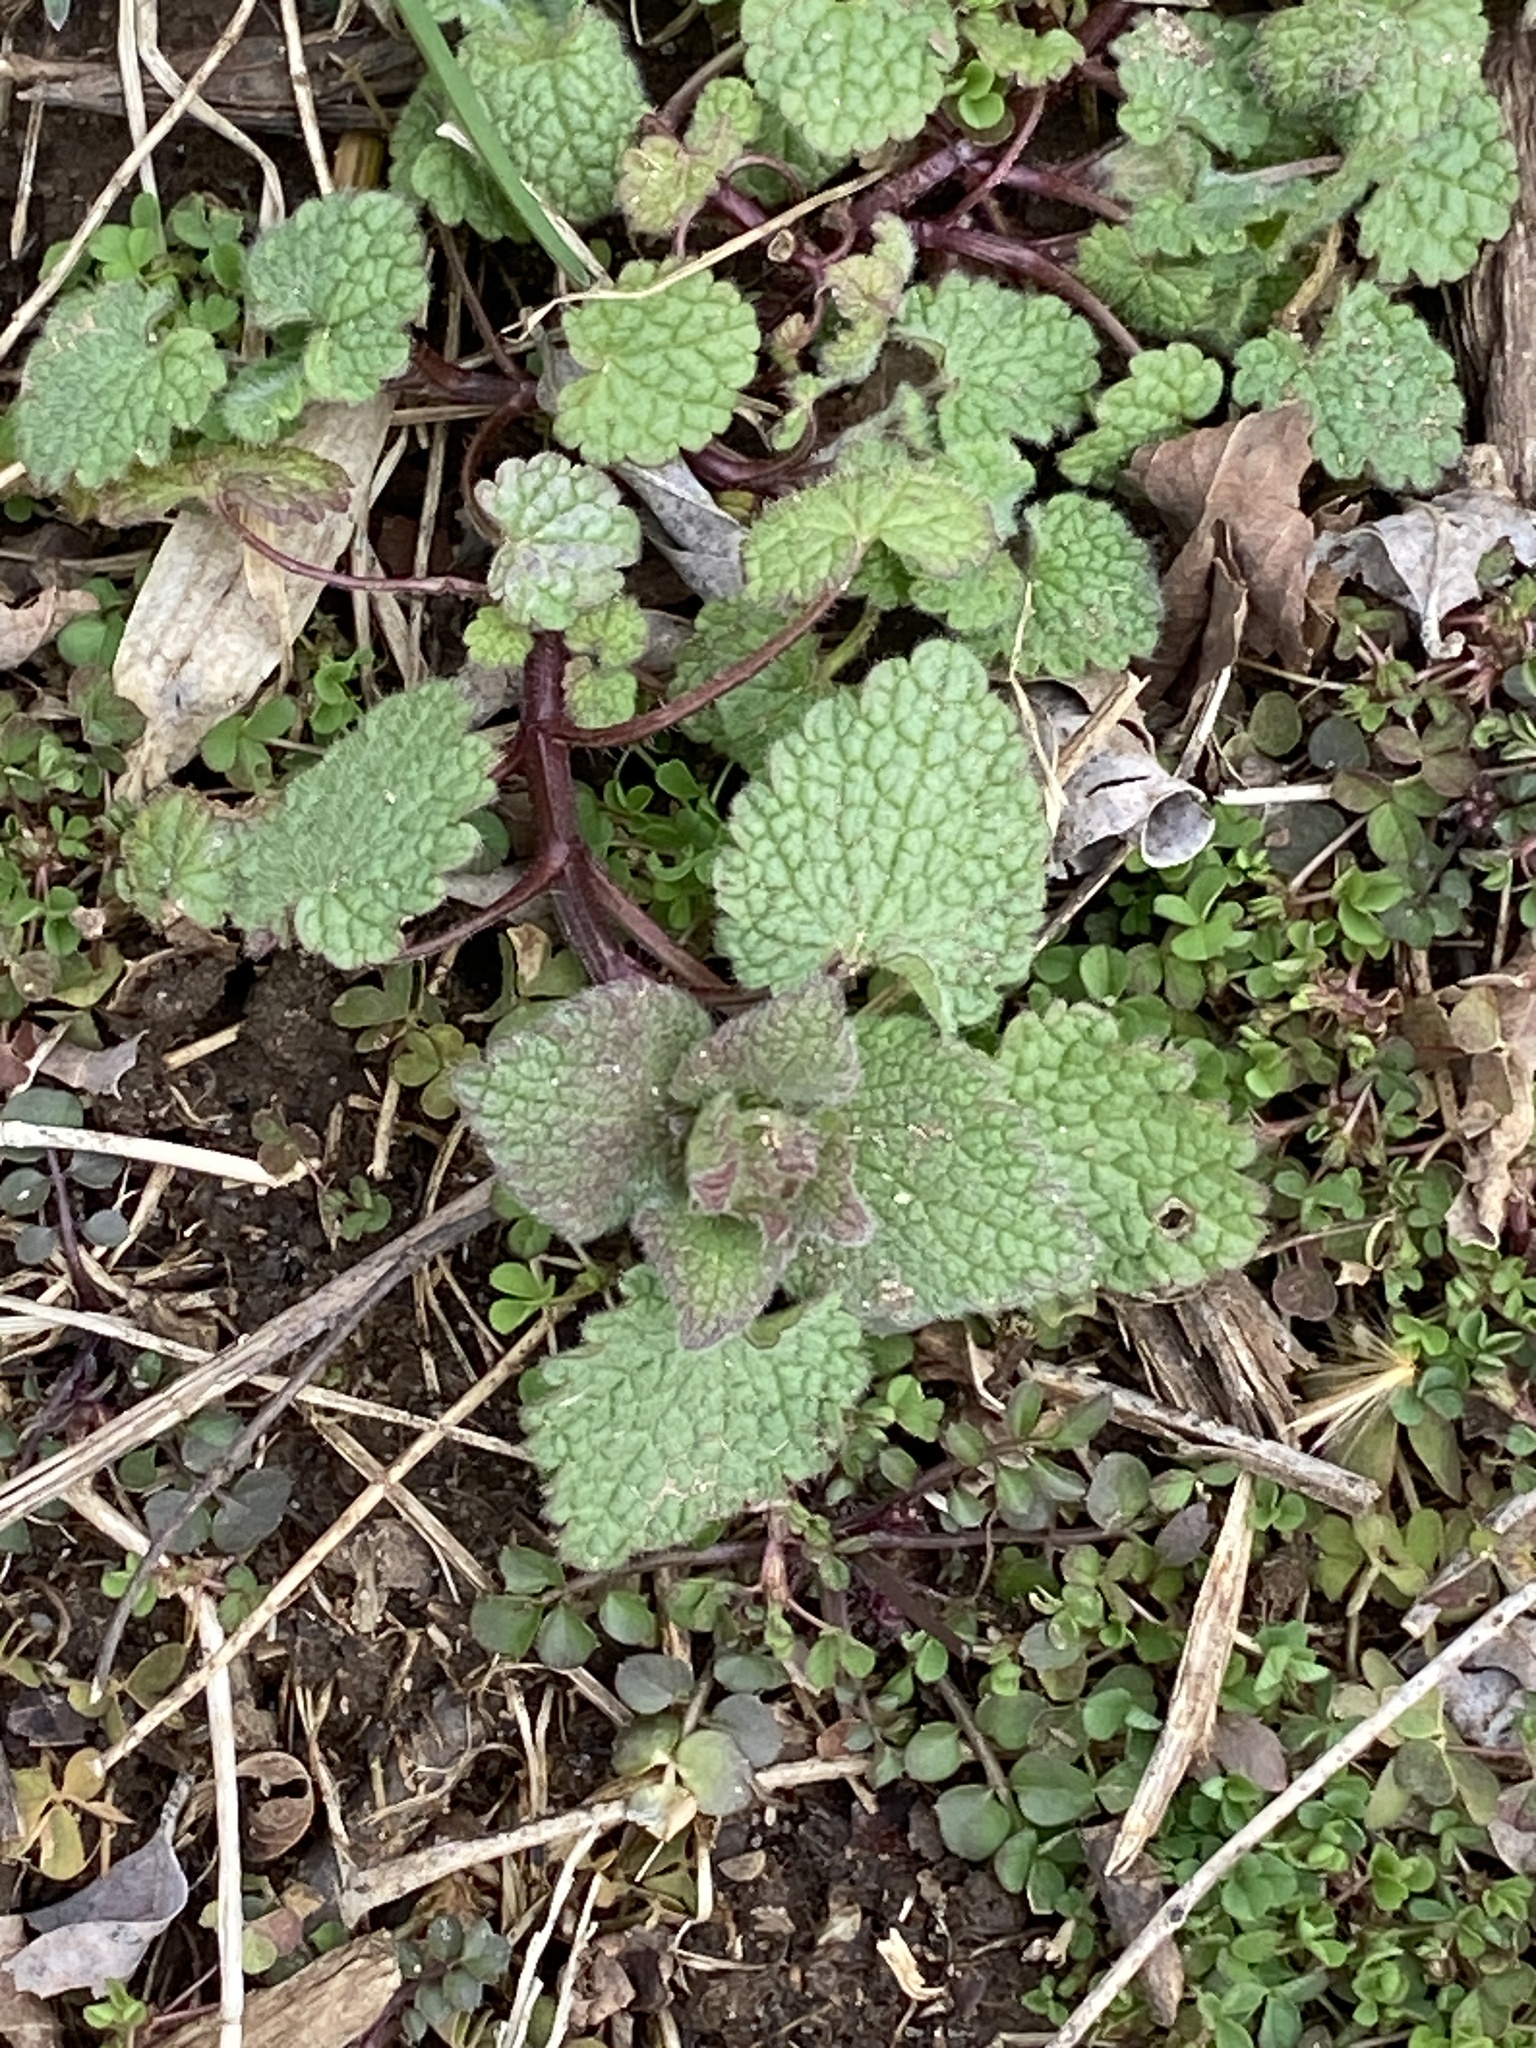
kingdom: Plantae
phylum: Tracheophyta
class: Magnoliopsida
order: Lamiales
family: Lamiaceae
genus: Lamium
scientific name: Lamium purpureum
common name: Red dead-nettle
